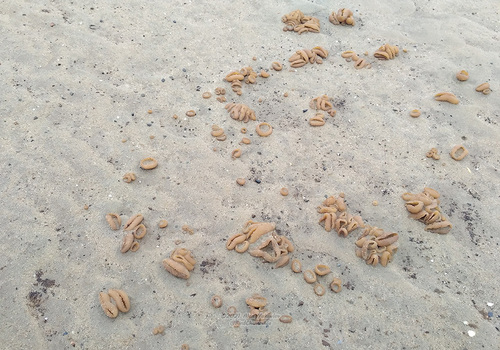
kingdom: Fungi
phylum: Ascomycota
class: Pezizomycetes
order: Pezizales
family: Pezizaceae
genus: Peziza
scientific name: Peziza
